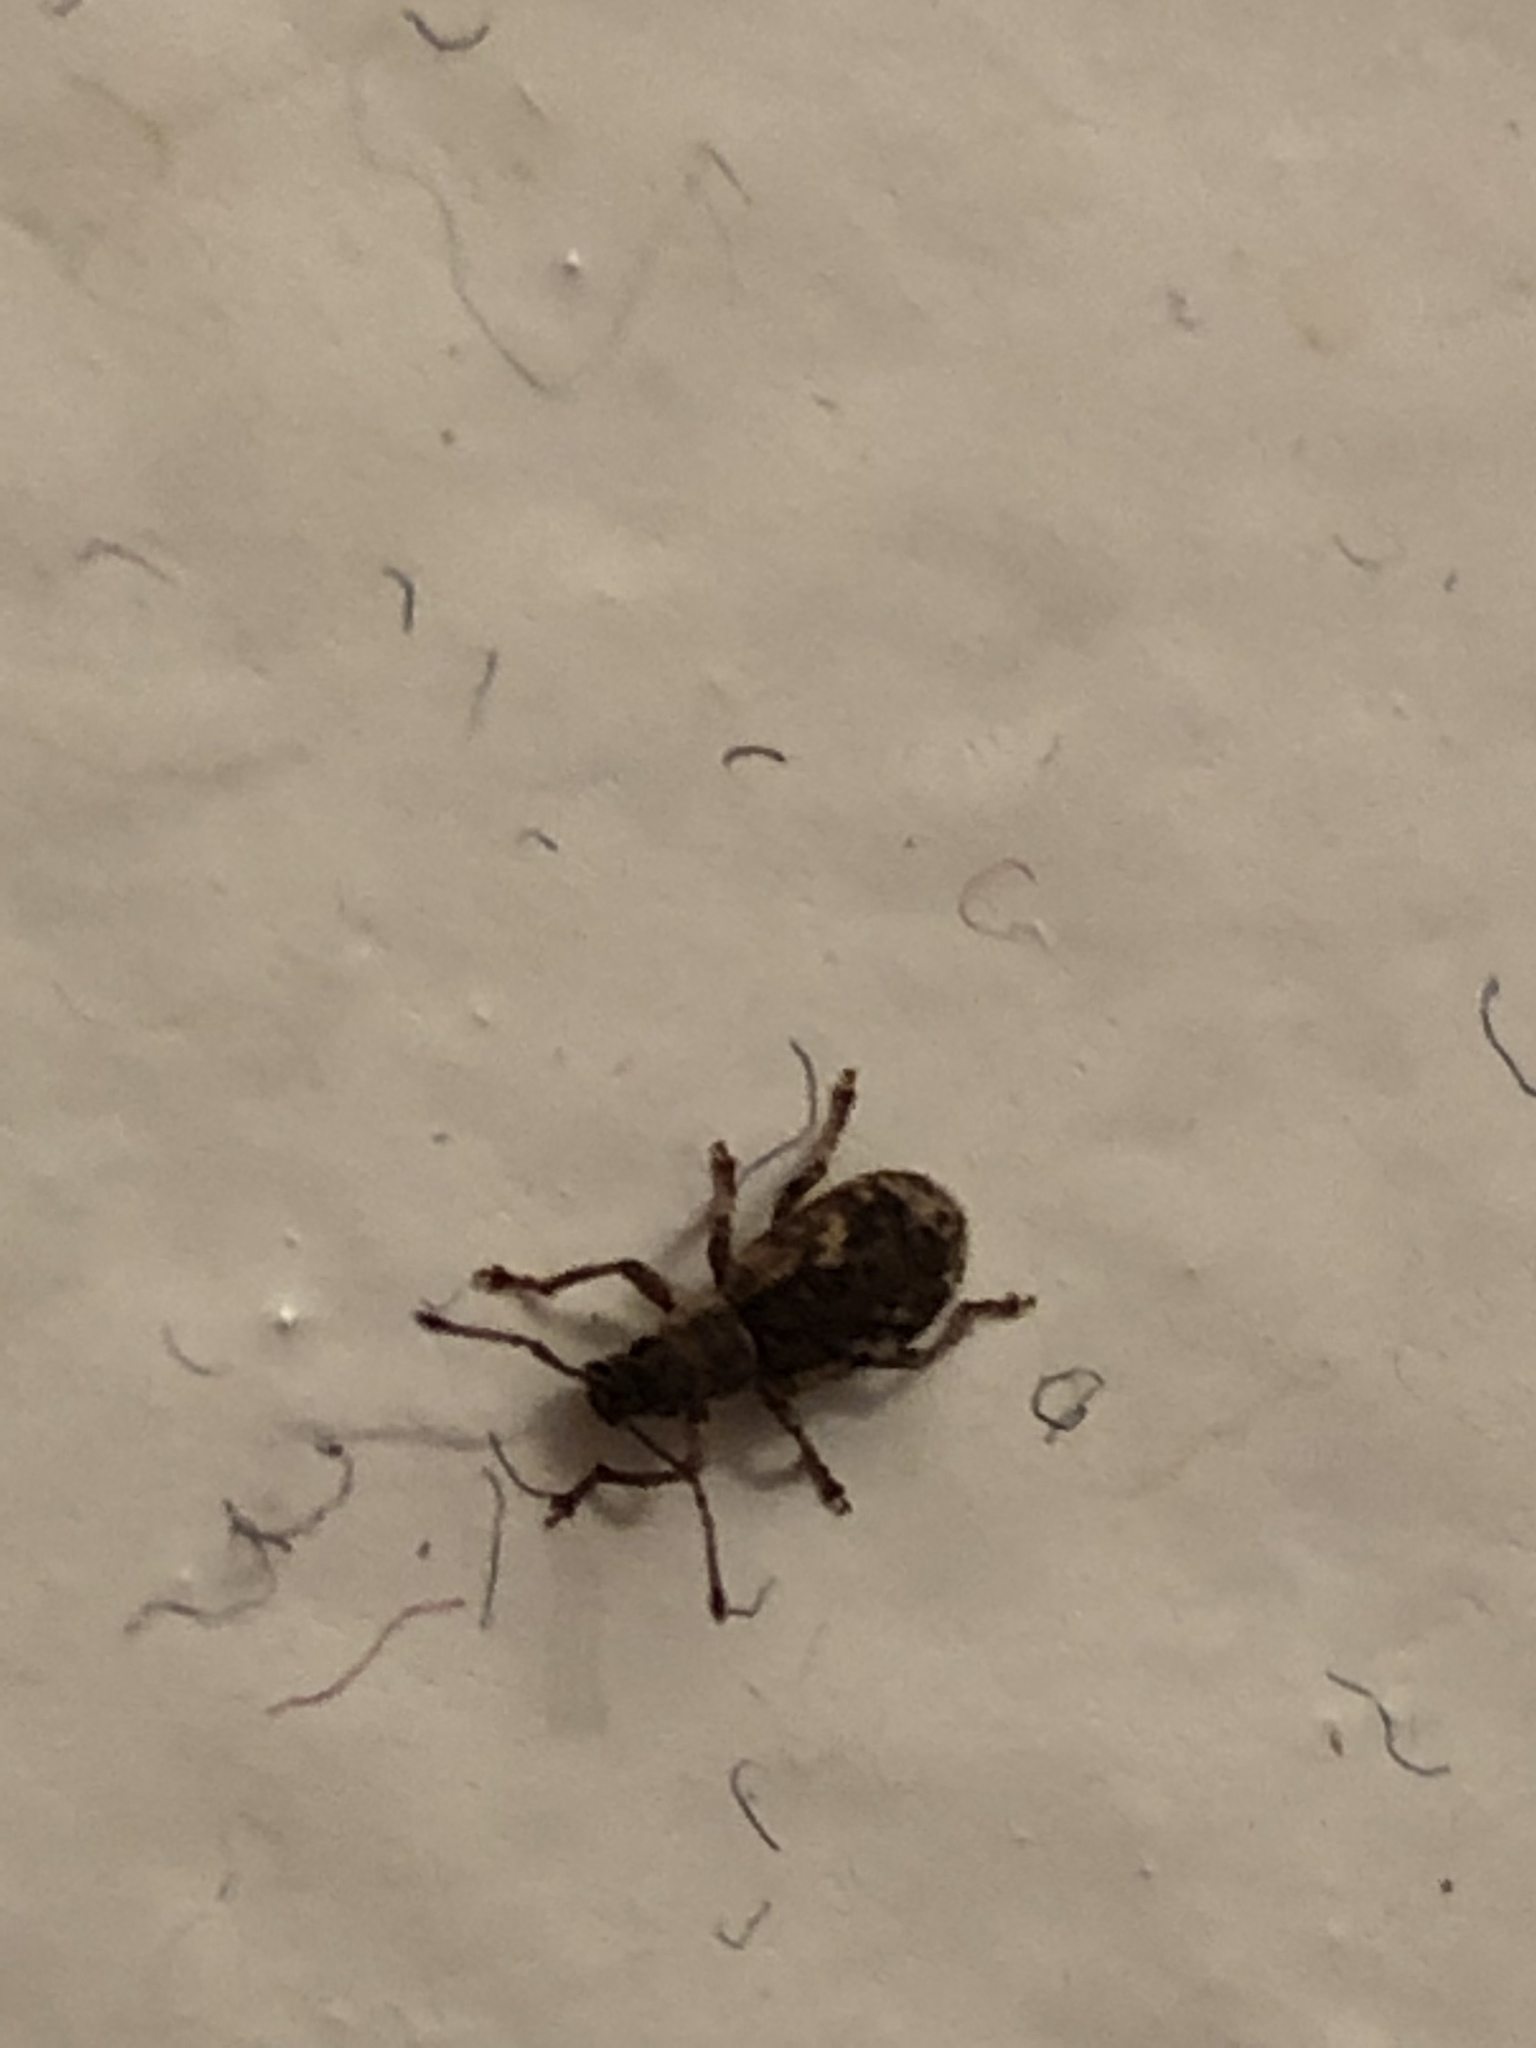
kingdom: Animalia
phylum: Arthropoda
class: Insecta
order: Coleoptera
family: Curculionidae
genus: Pseudoedophrys
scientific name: Pseudoedophrys hilleri
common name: Weevil
